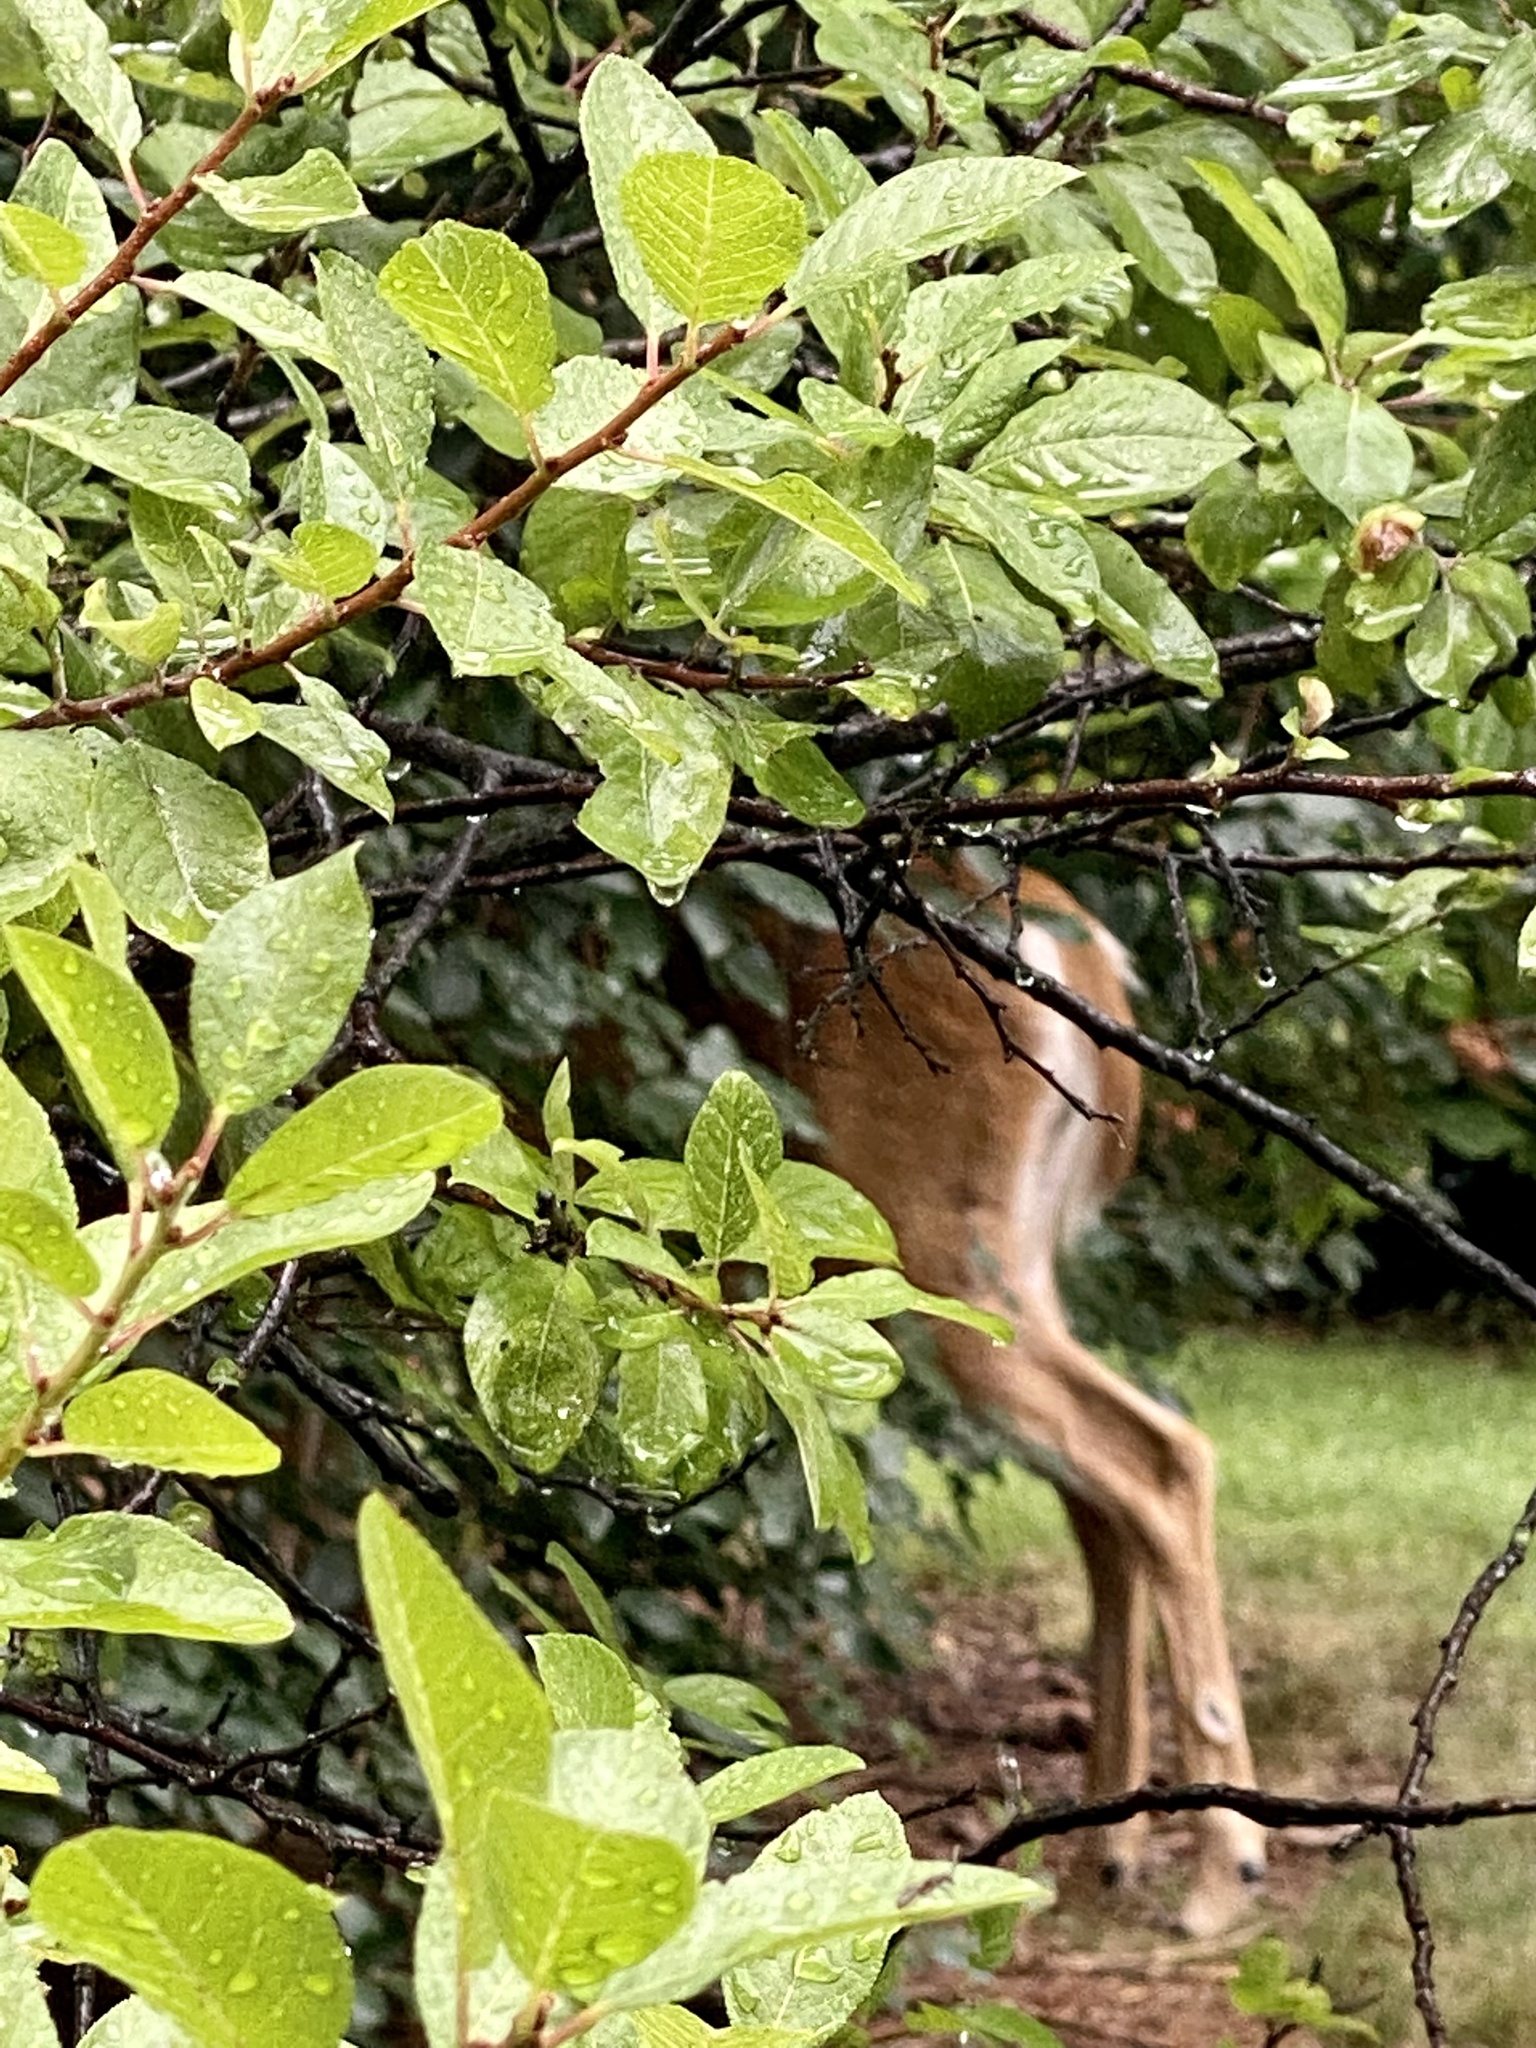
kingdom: Animalia
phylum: Chordata
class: Mammalia
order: Artiodactyla
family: Cervidae
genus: Odocoileus
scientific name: Odocoileus virginianus
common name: White-tailed deer
